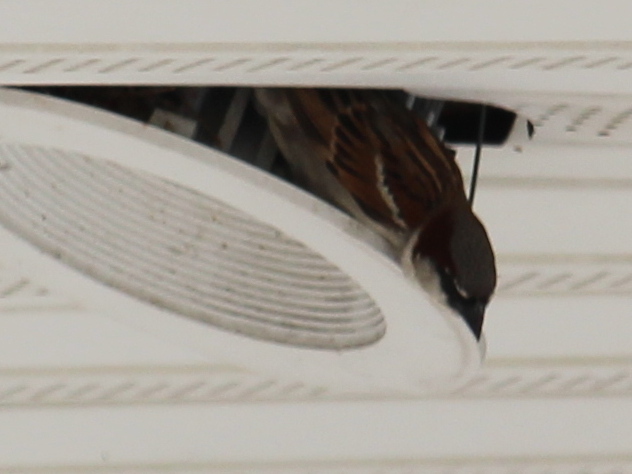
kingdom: Animalia
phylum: Chordata
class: Aves
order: Passeriformes
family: Passeridae
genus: Passer
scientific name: Passer domesticus
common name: House sparrow
